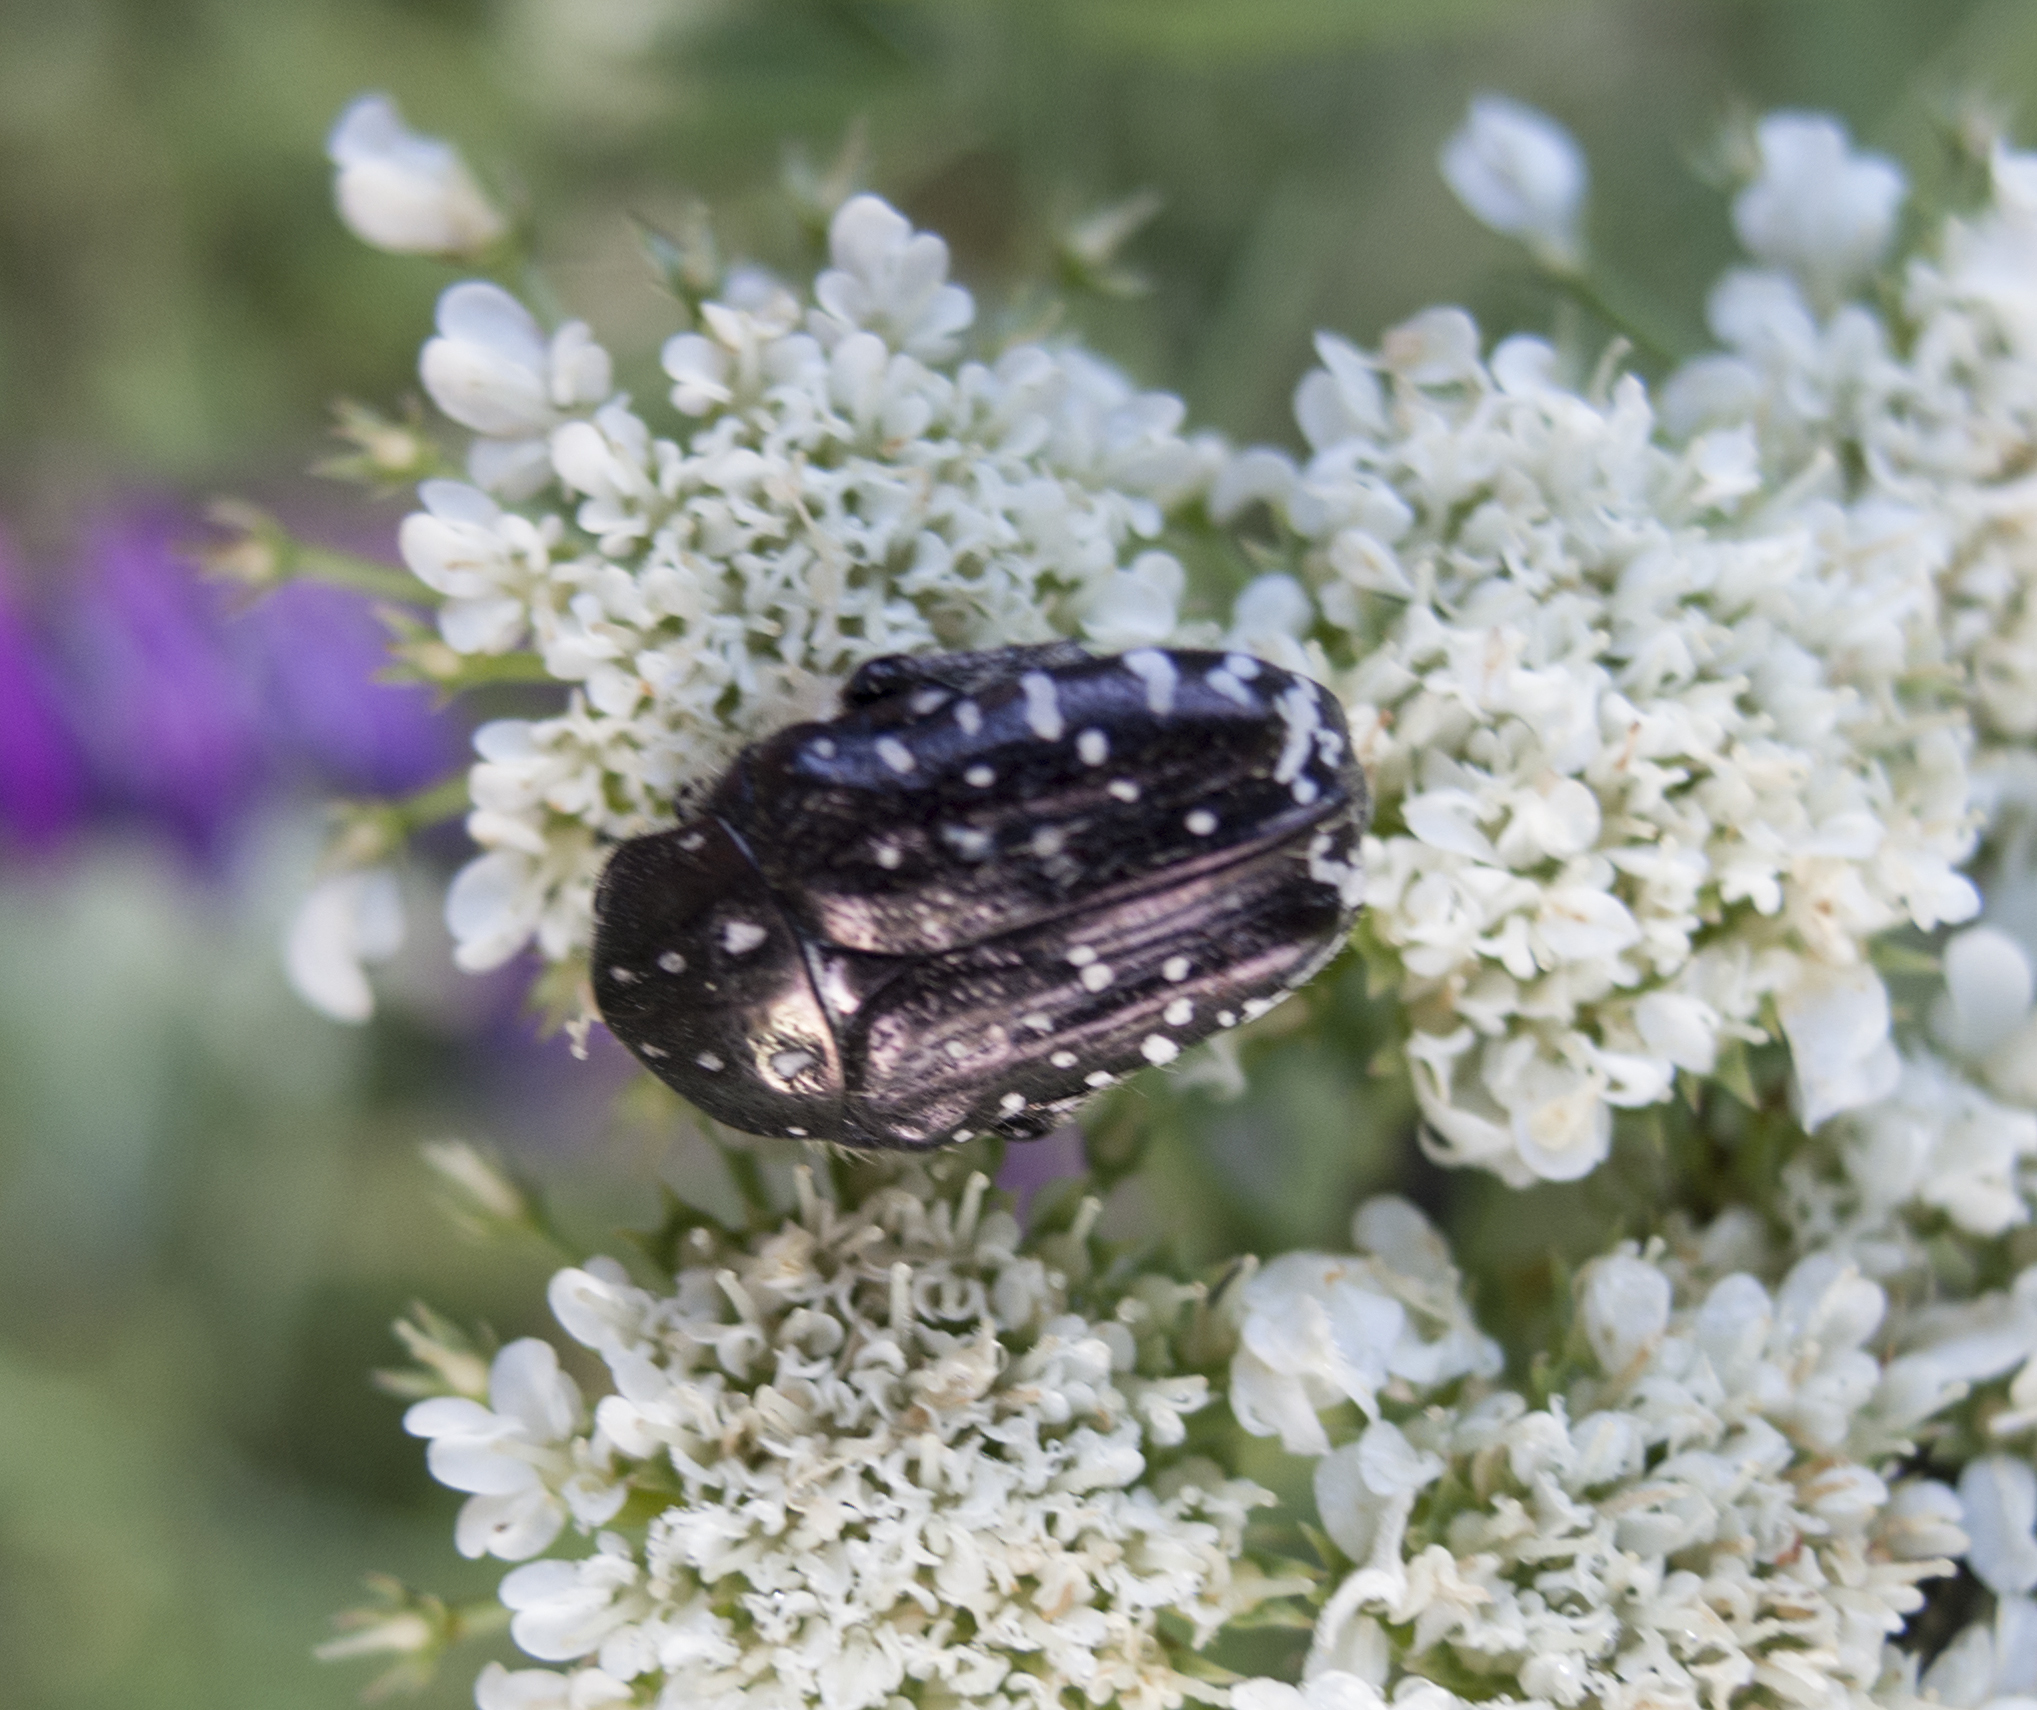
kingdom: Animalia
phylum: Arthropoda
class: Insecta
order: Coleoptera
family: Scarabaeidae
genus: Oxythyrea
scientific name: Oxythyrea funesta
